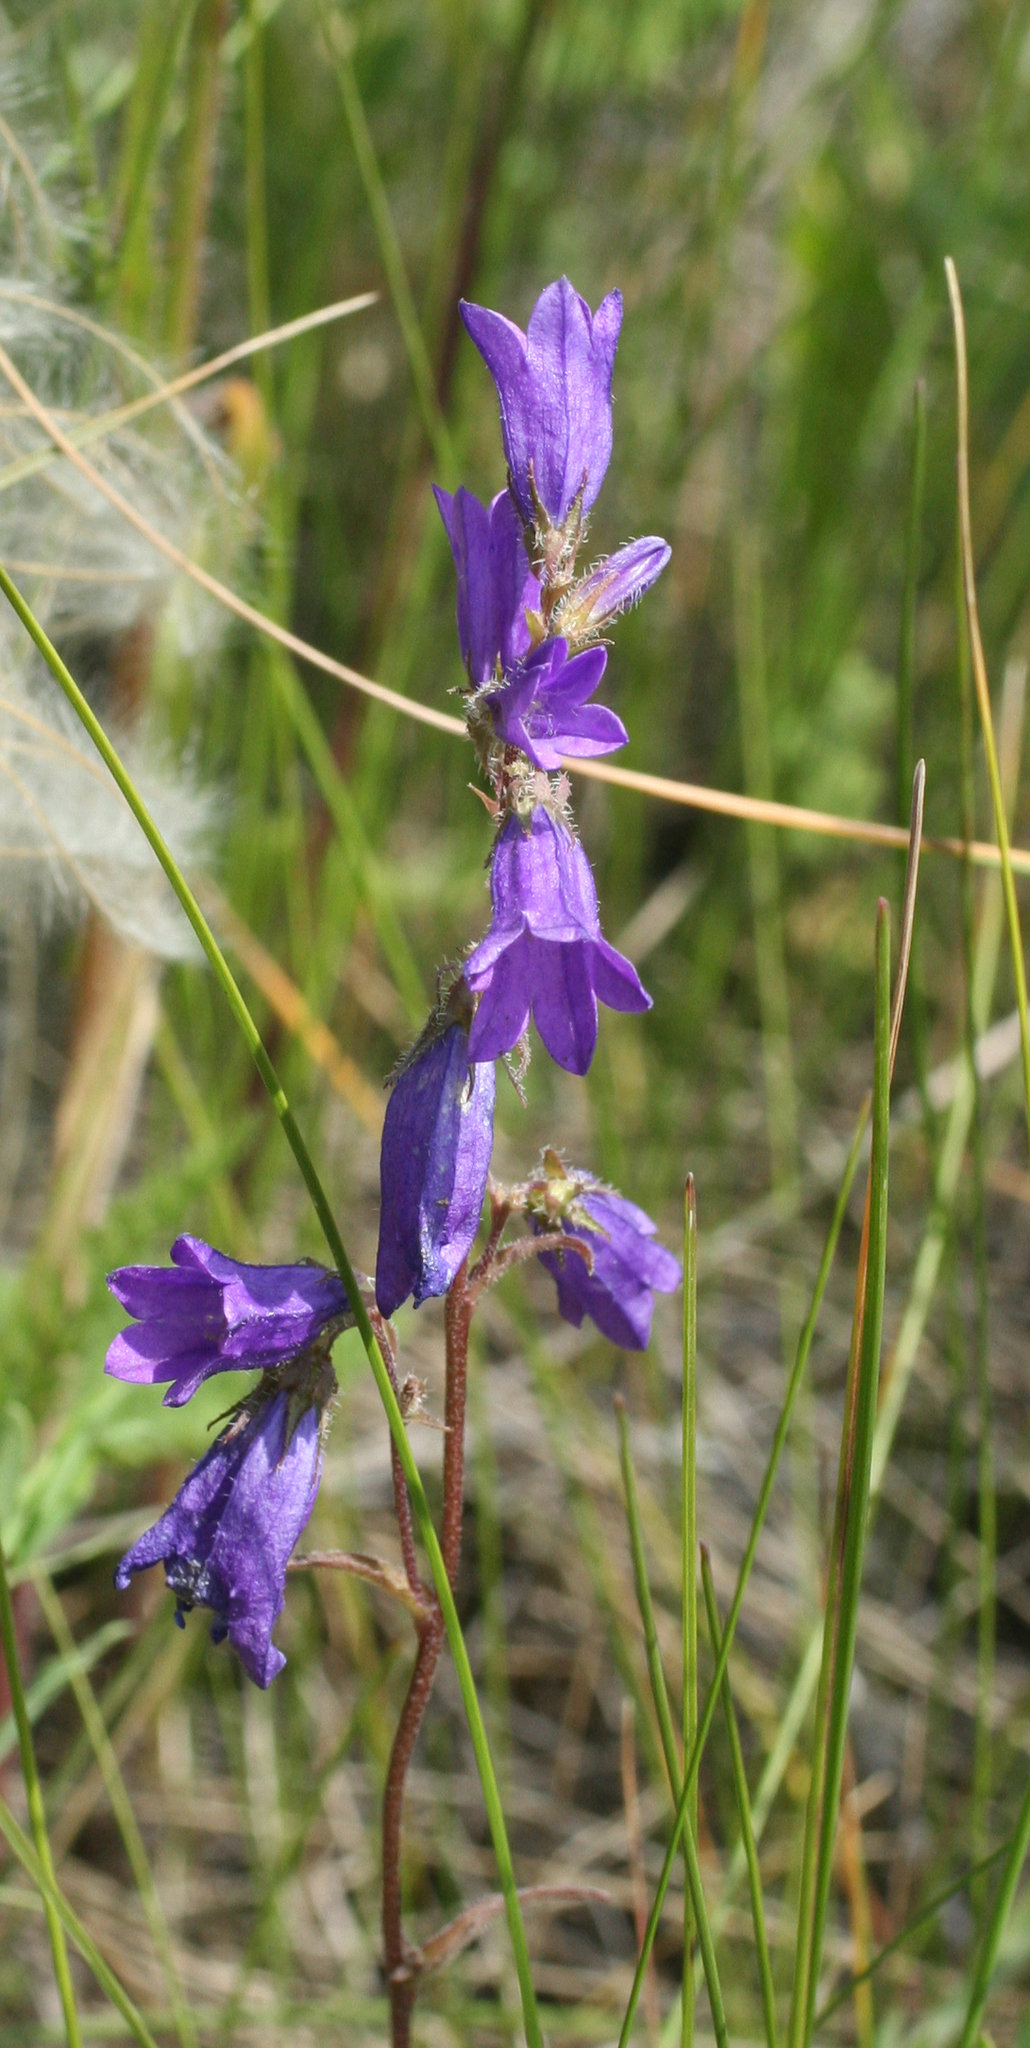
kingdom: Plantae
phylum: Tracheophyta
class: Magnoliopsida
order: Asterales
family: Campanulaceae
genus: Campanula
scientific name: Campanula sibirica
